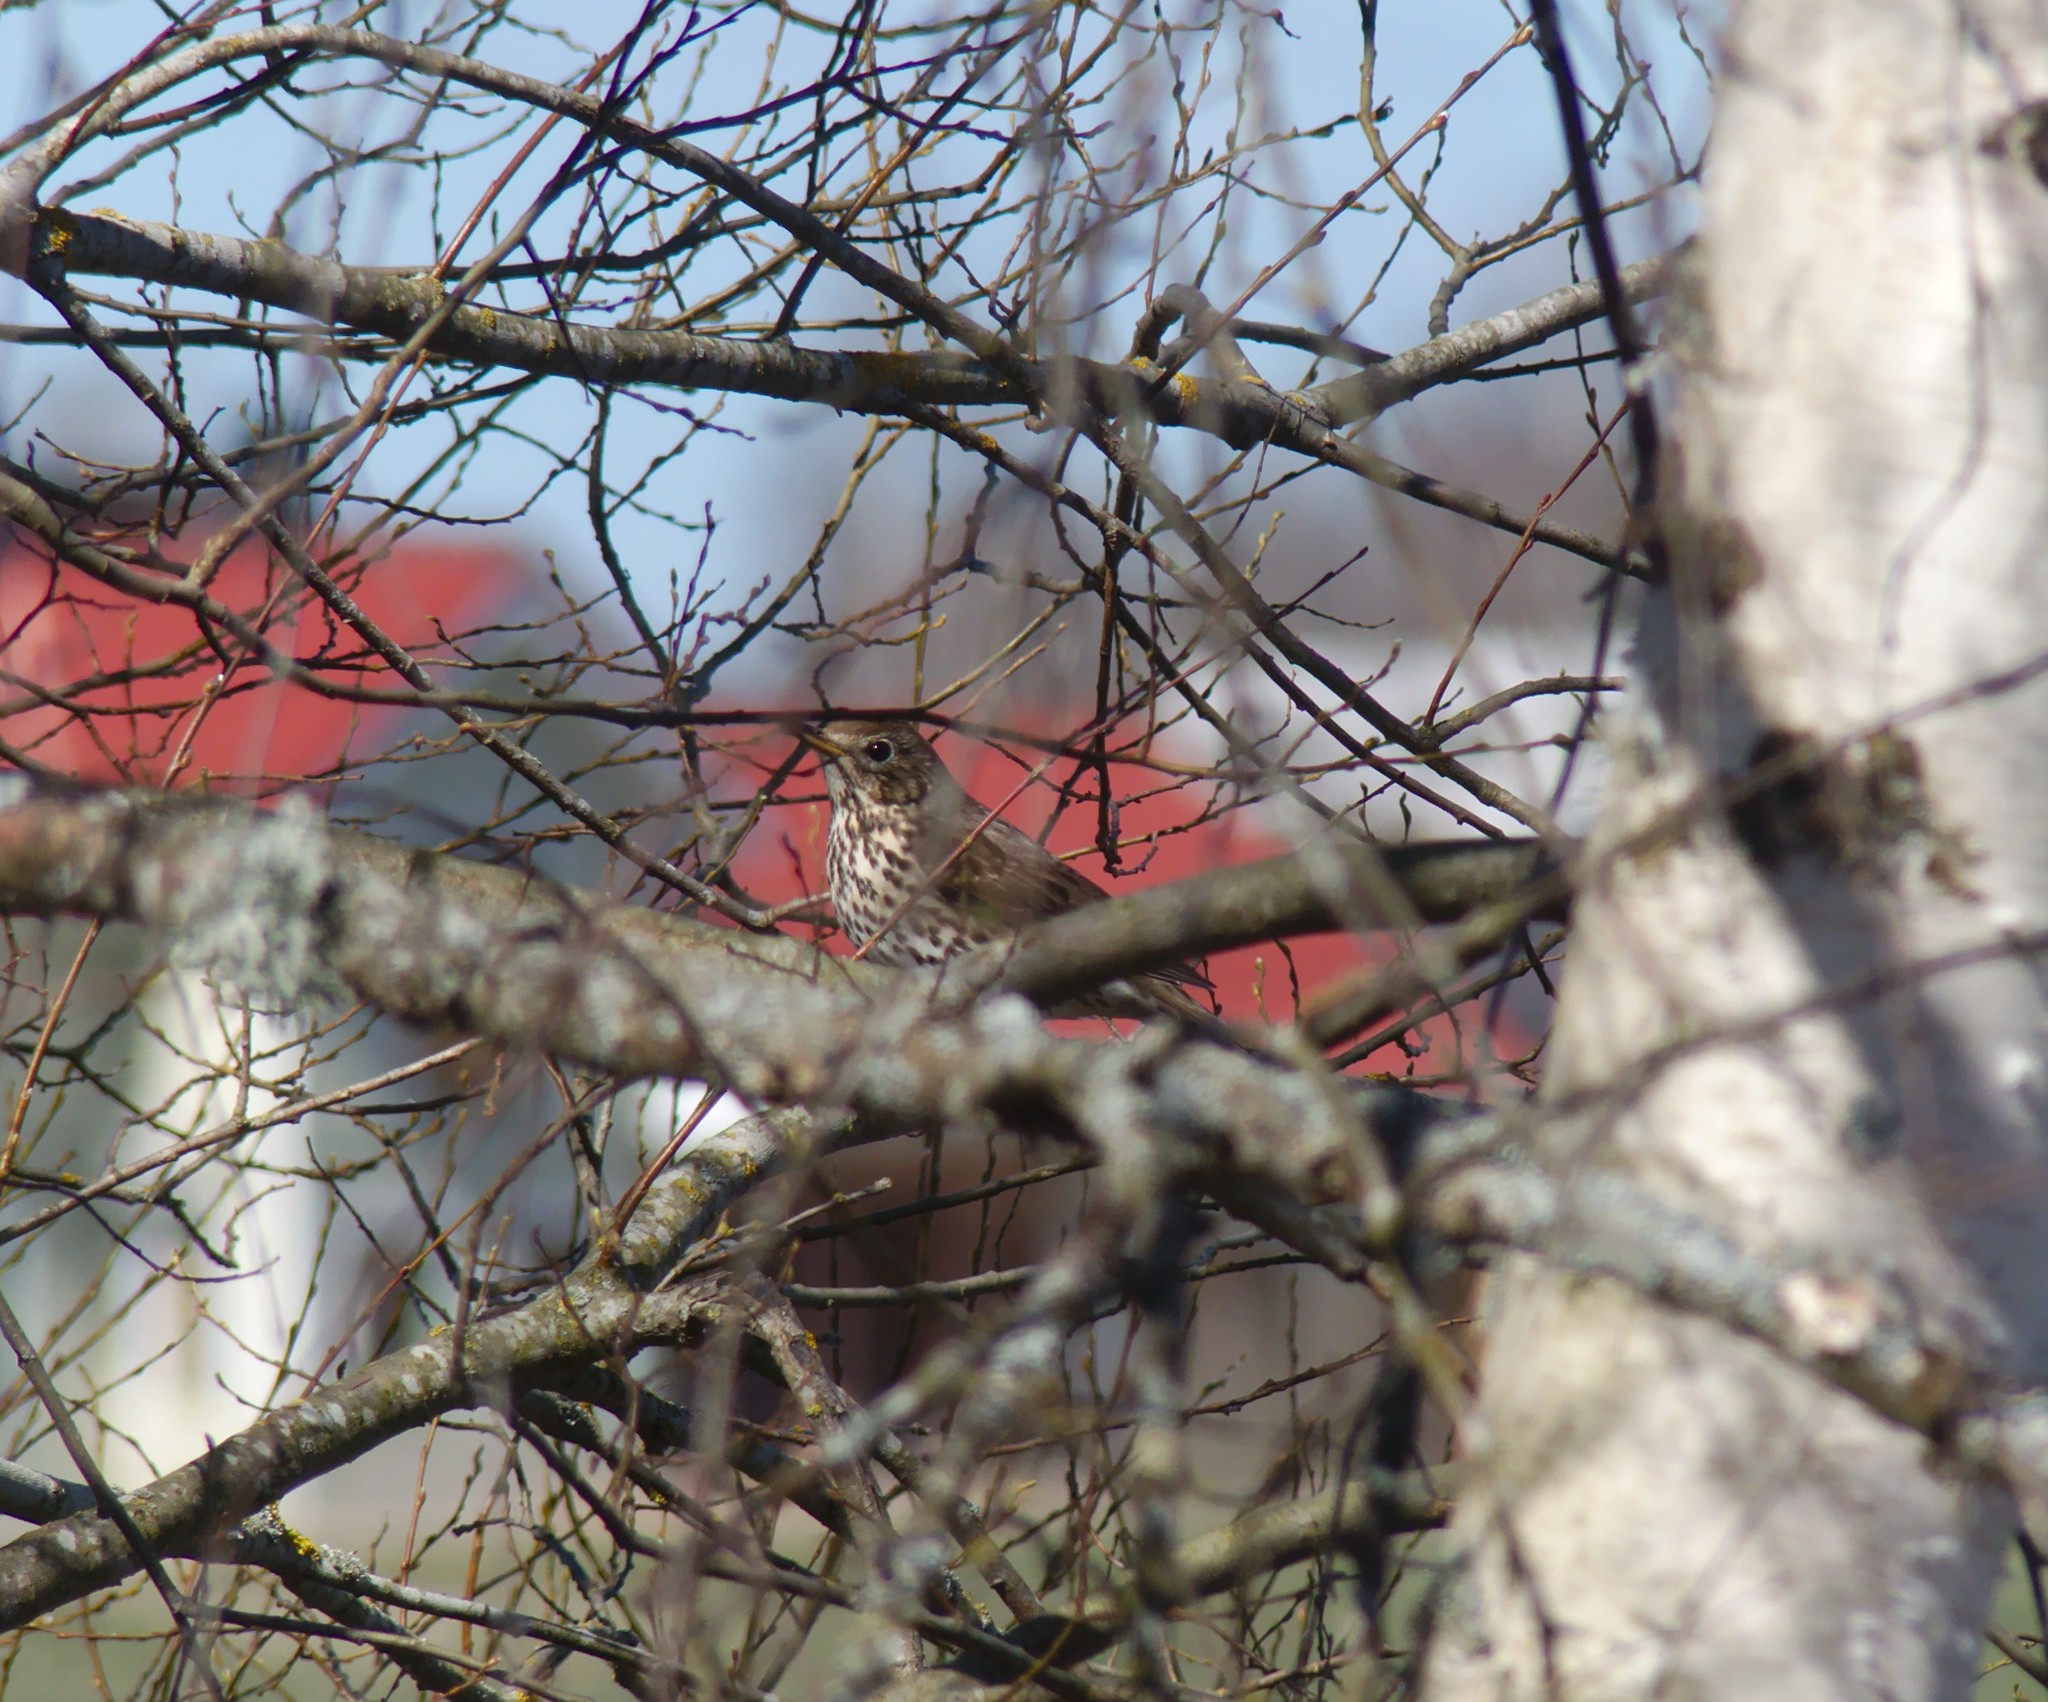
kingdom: Animalia
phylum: Chordata
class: Aves
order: Passeriformes
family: Turdidae
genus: Turdus
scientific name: Turdus philomelos
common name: Song thrush
